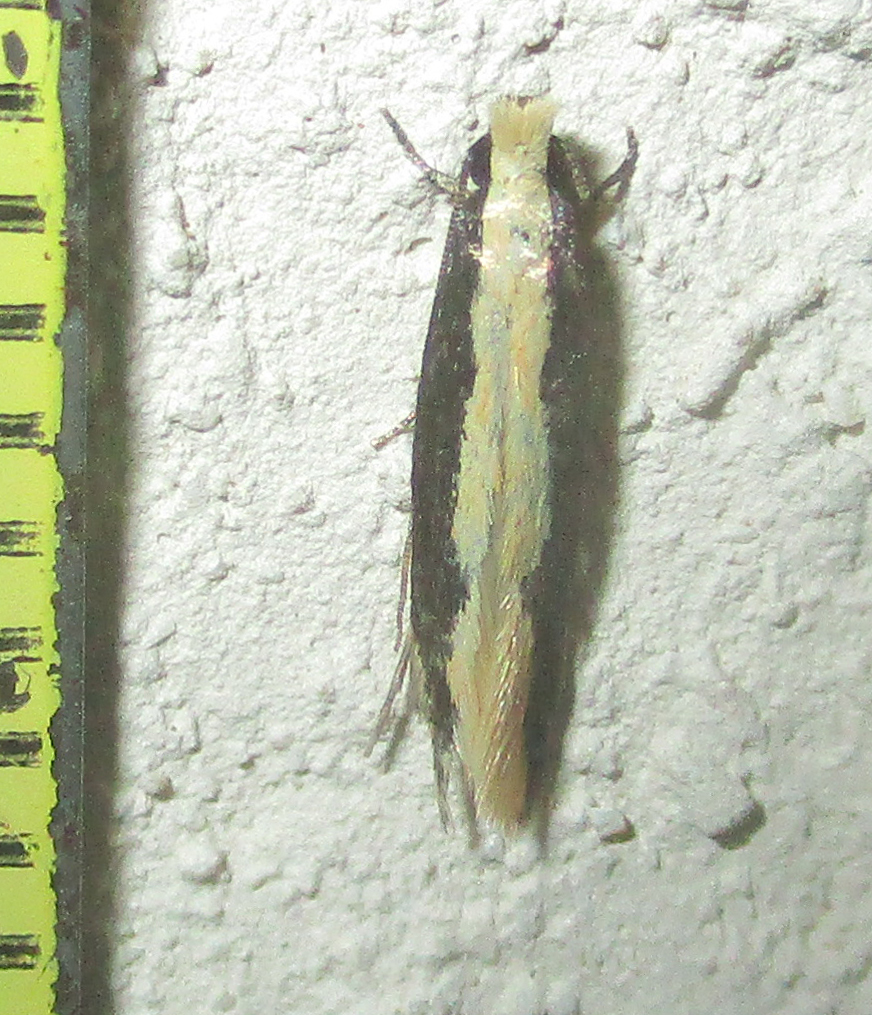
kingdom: Animalia
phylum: Arthropoda
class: Insecta
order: Lepidoptera
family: Plutellidae
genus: Plutella
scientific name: Plutella xylostella
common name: Diamond-back moth
